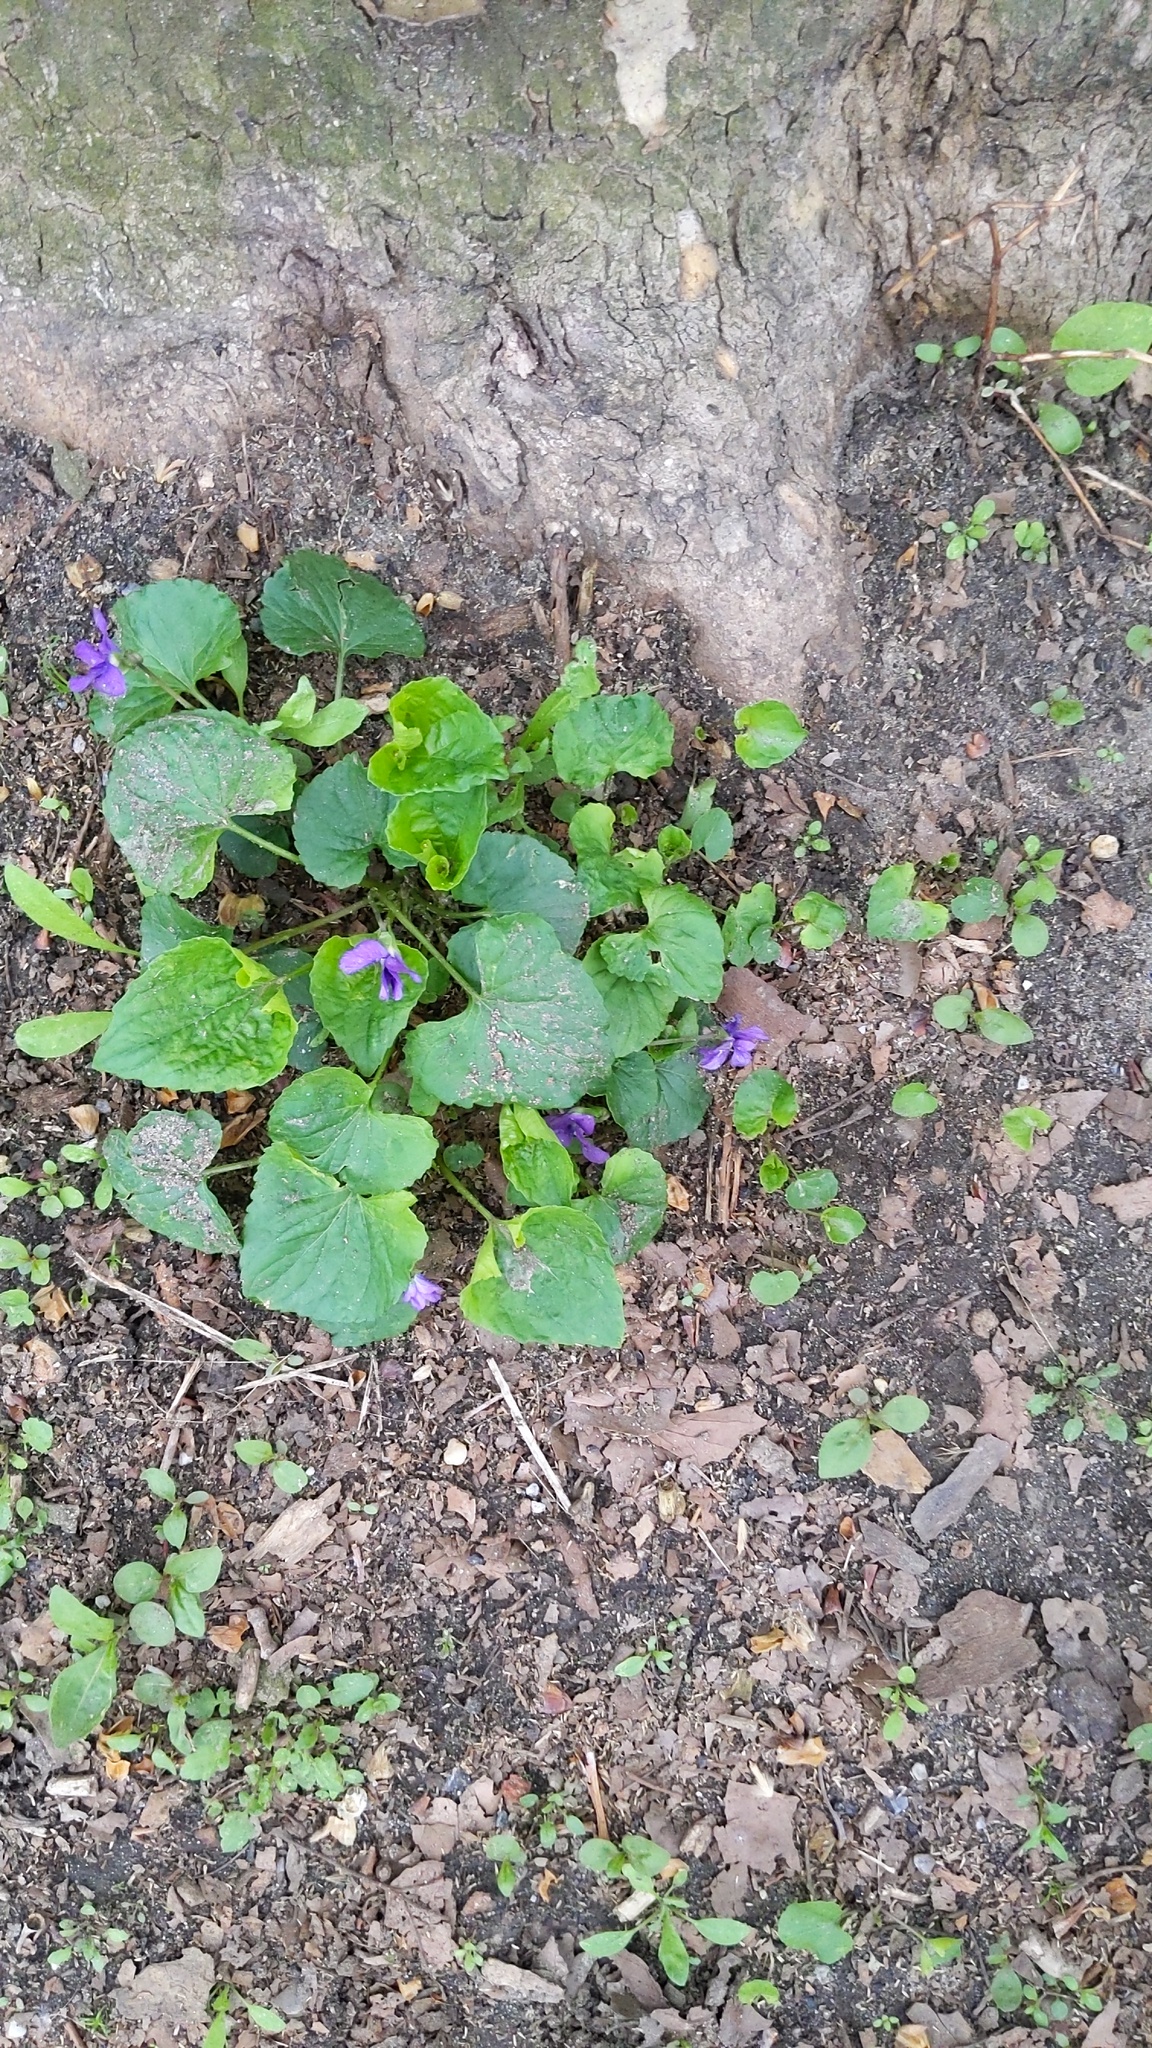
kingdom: Plantae
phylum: Tracheophyta
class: Magnoliopsida
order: Malpighiales
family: Violaceae
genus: Viola
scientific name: Viola sororia
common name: Dooryard violet
